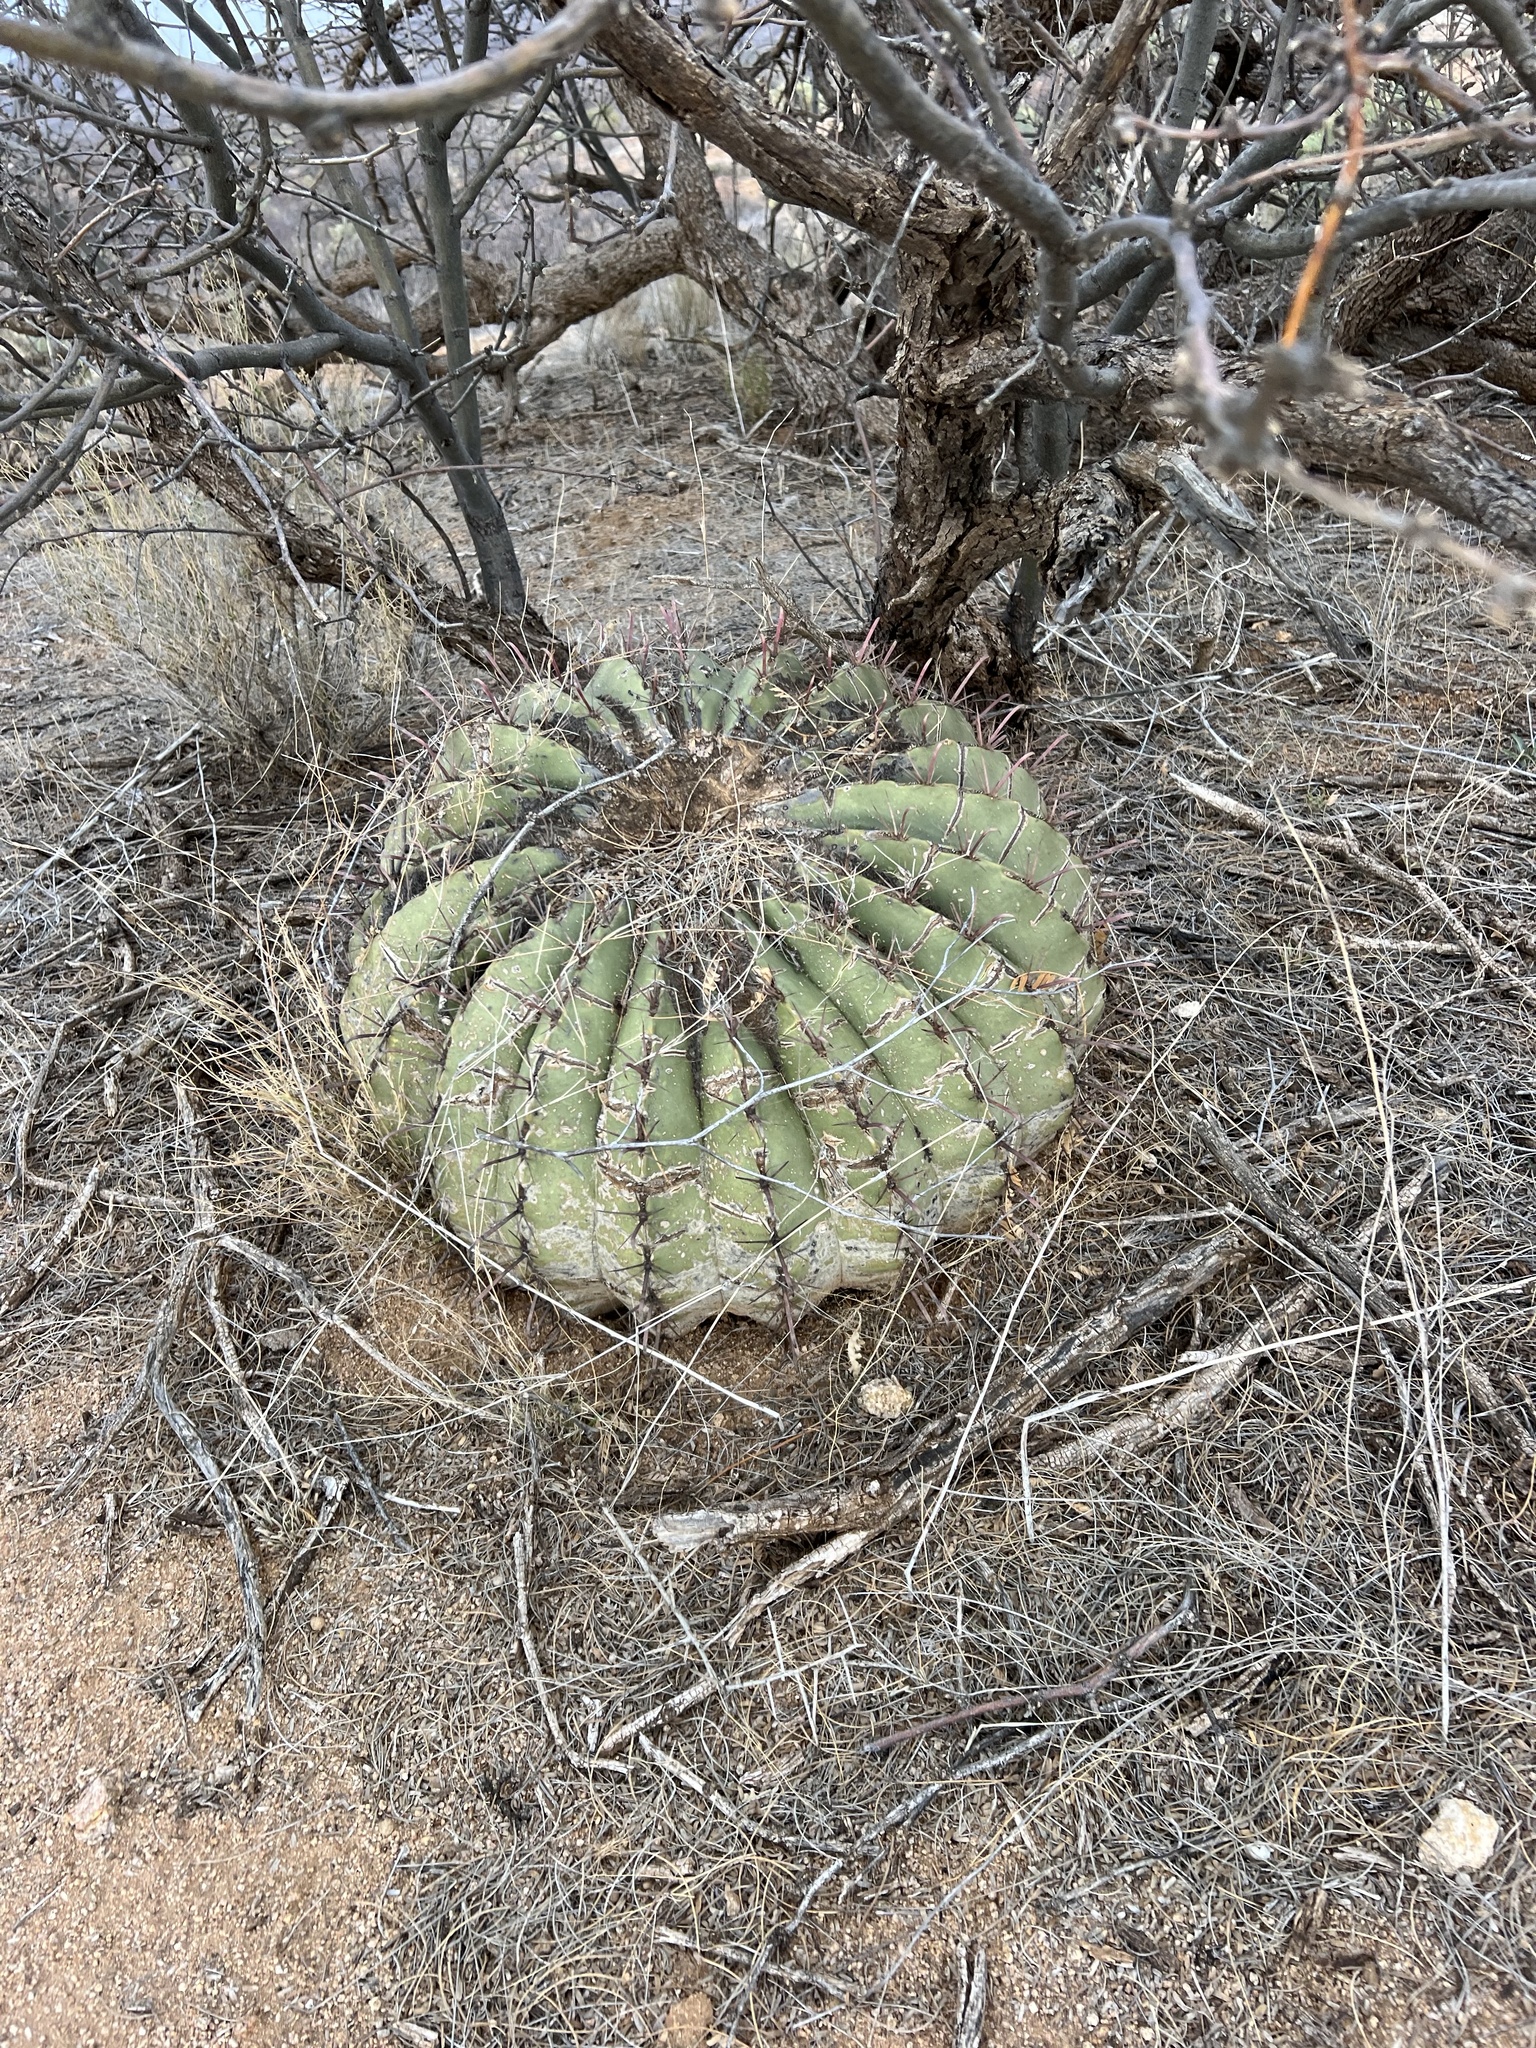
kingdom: Plantae
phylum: Tracheophyta
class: Magnoliopsida
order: Caryophyllales
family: Cactaceae
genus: Ferocactus
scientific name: Ferocactus wislizeni
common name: Candy barrel cactus
